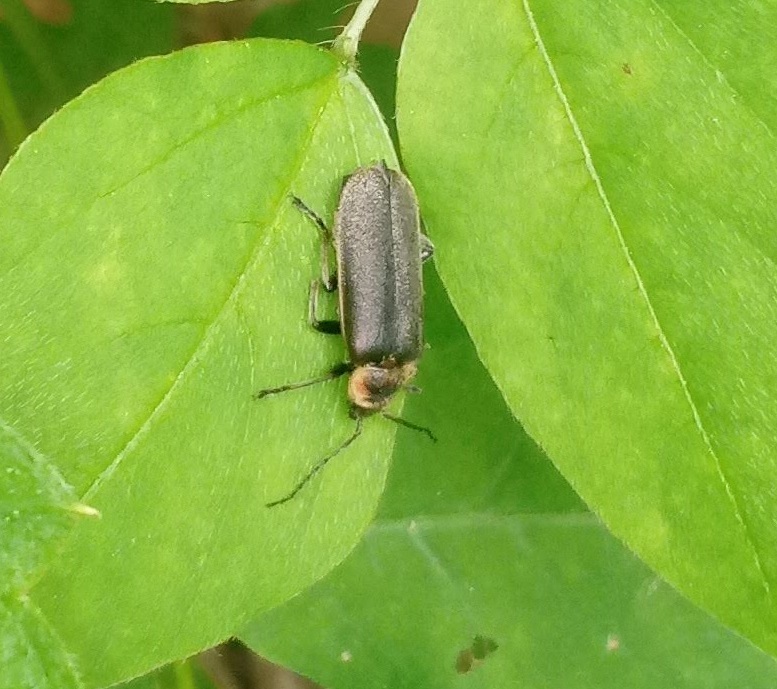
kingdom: Animalia
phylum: Arthropoda
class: Insecta
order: Coleoptera
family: Cantharidae
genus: Atalantycha
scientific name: Atalantycha dentigera
